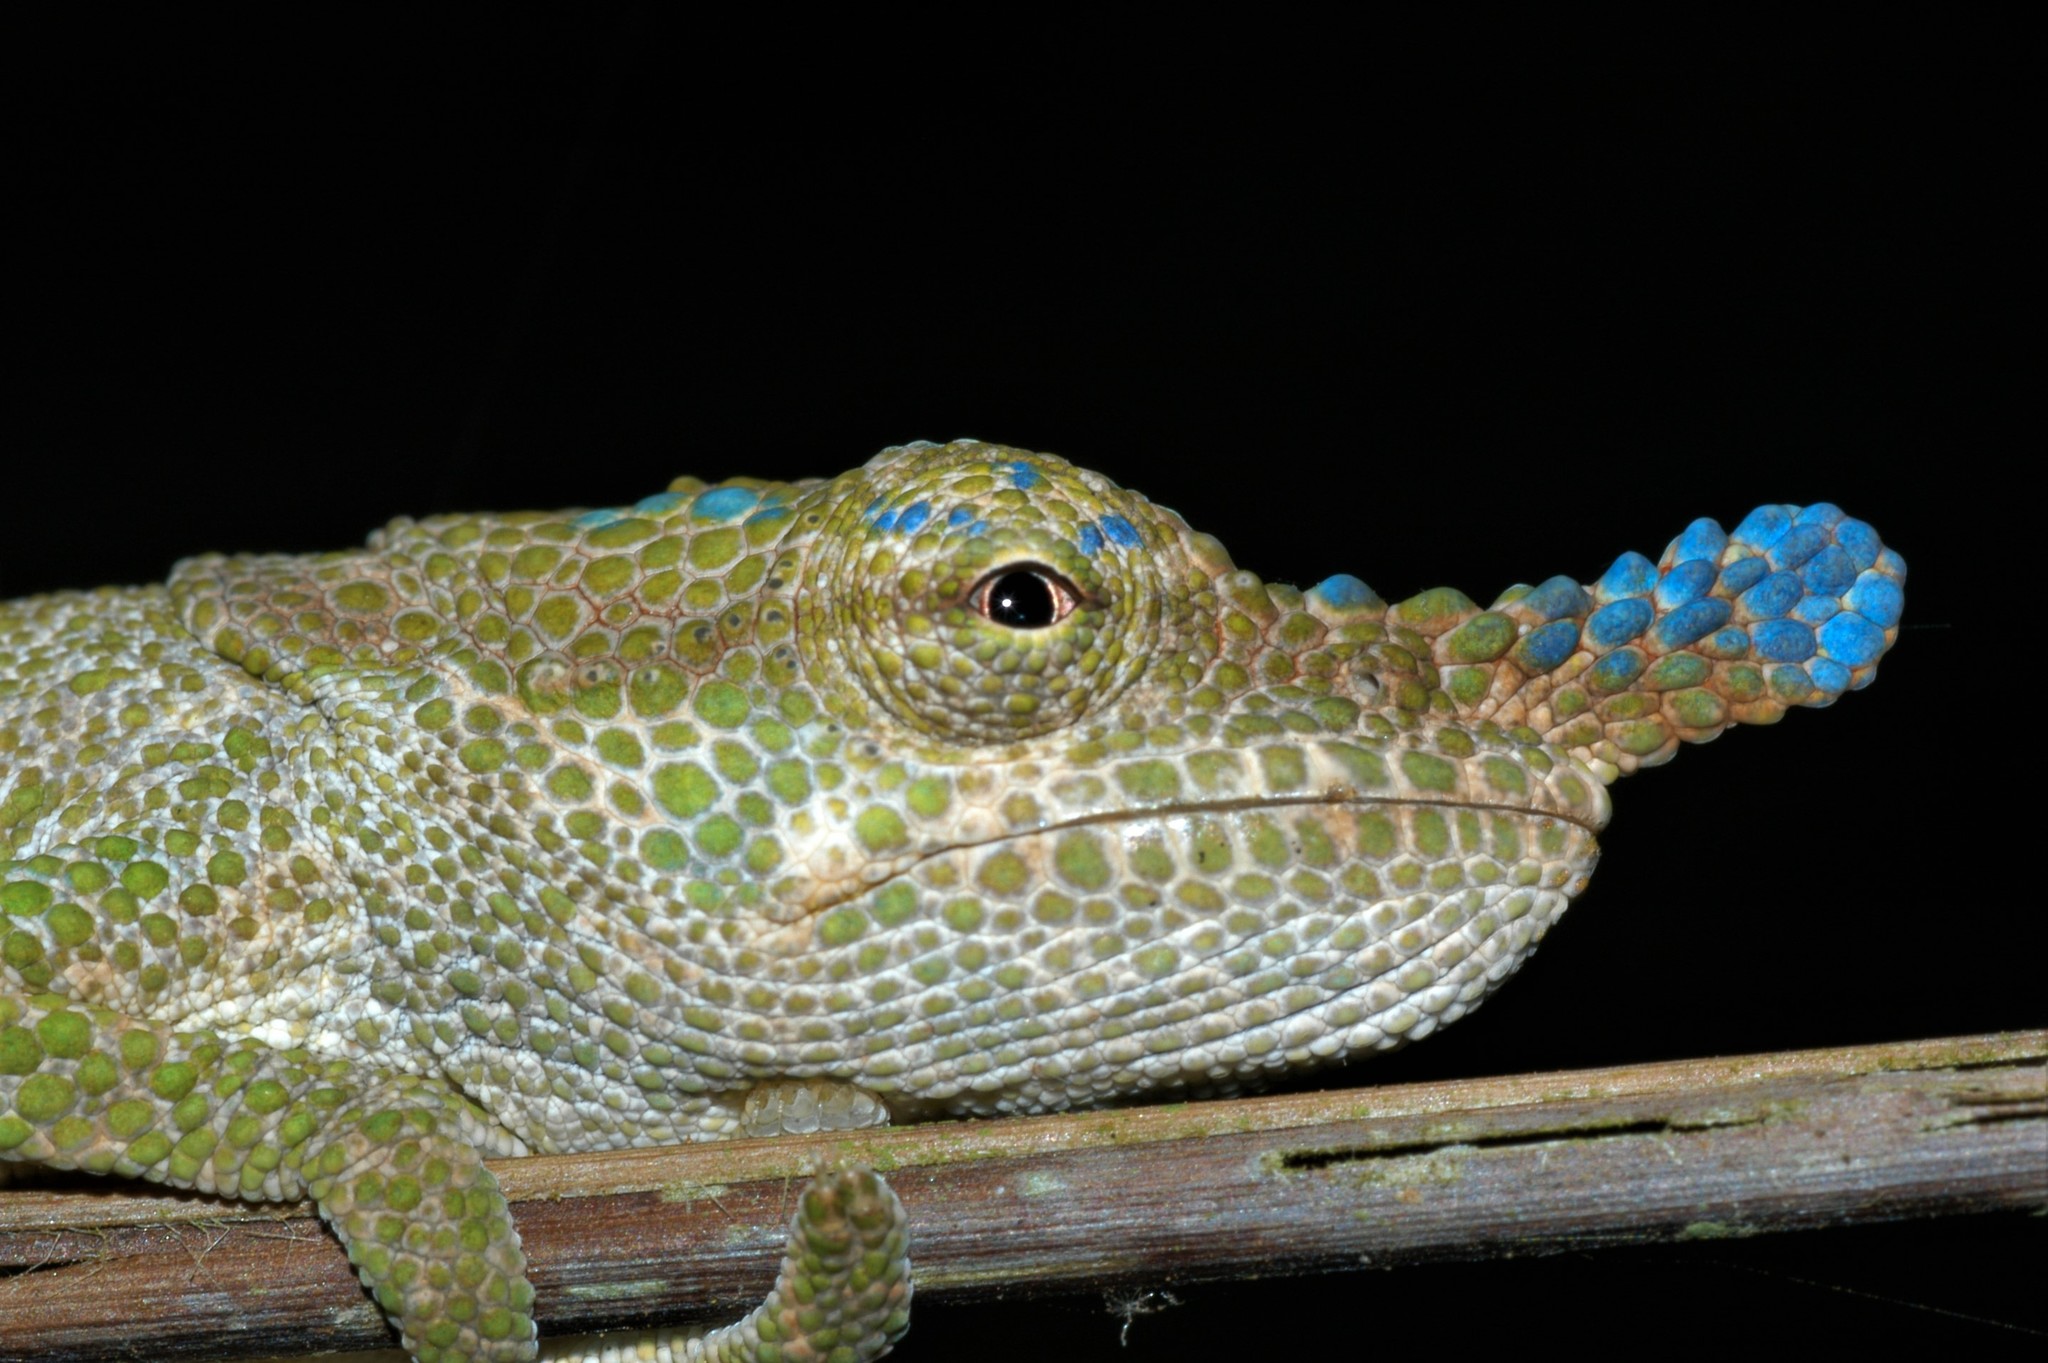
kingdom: Animalia
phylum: Chordata
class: Squamata
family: Chamaeleonidae
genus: Calumma
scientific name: Calumma linotum
